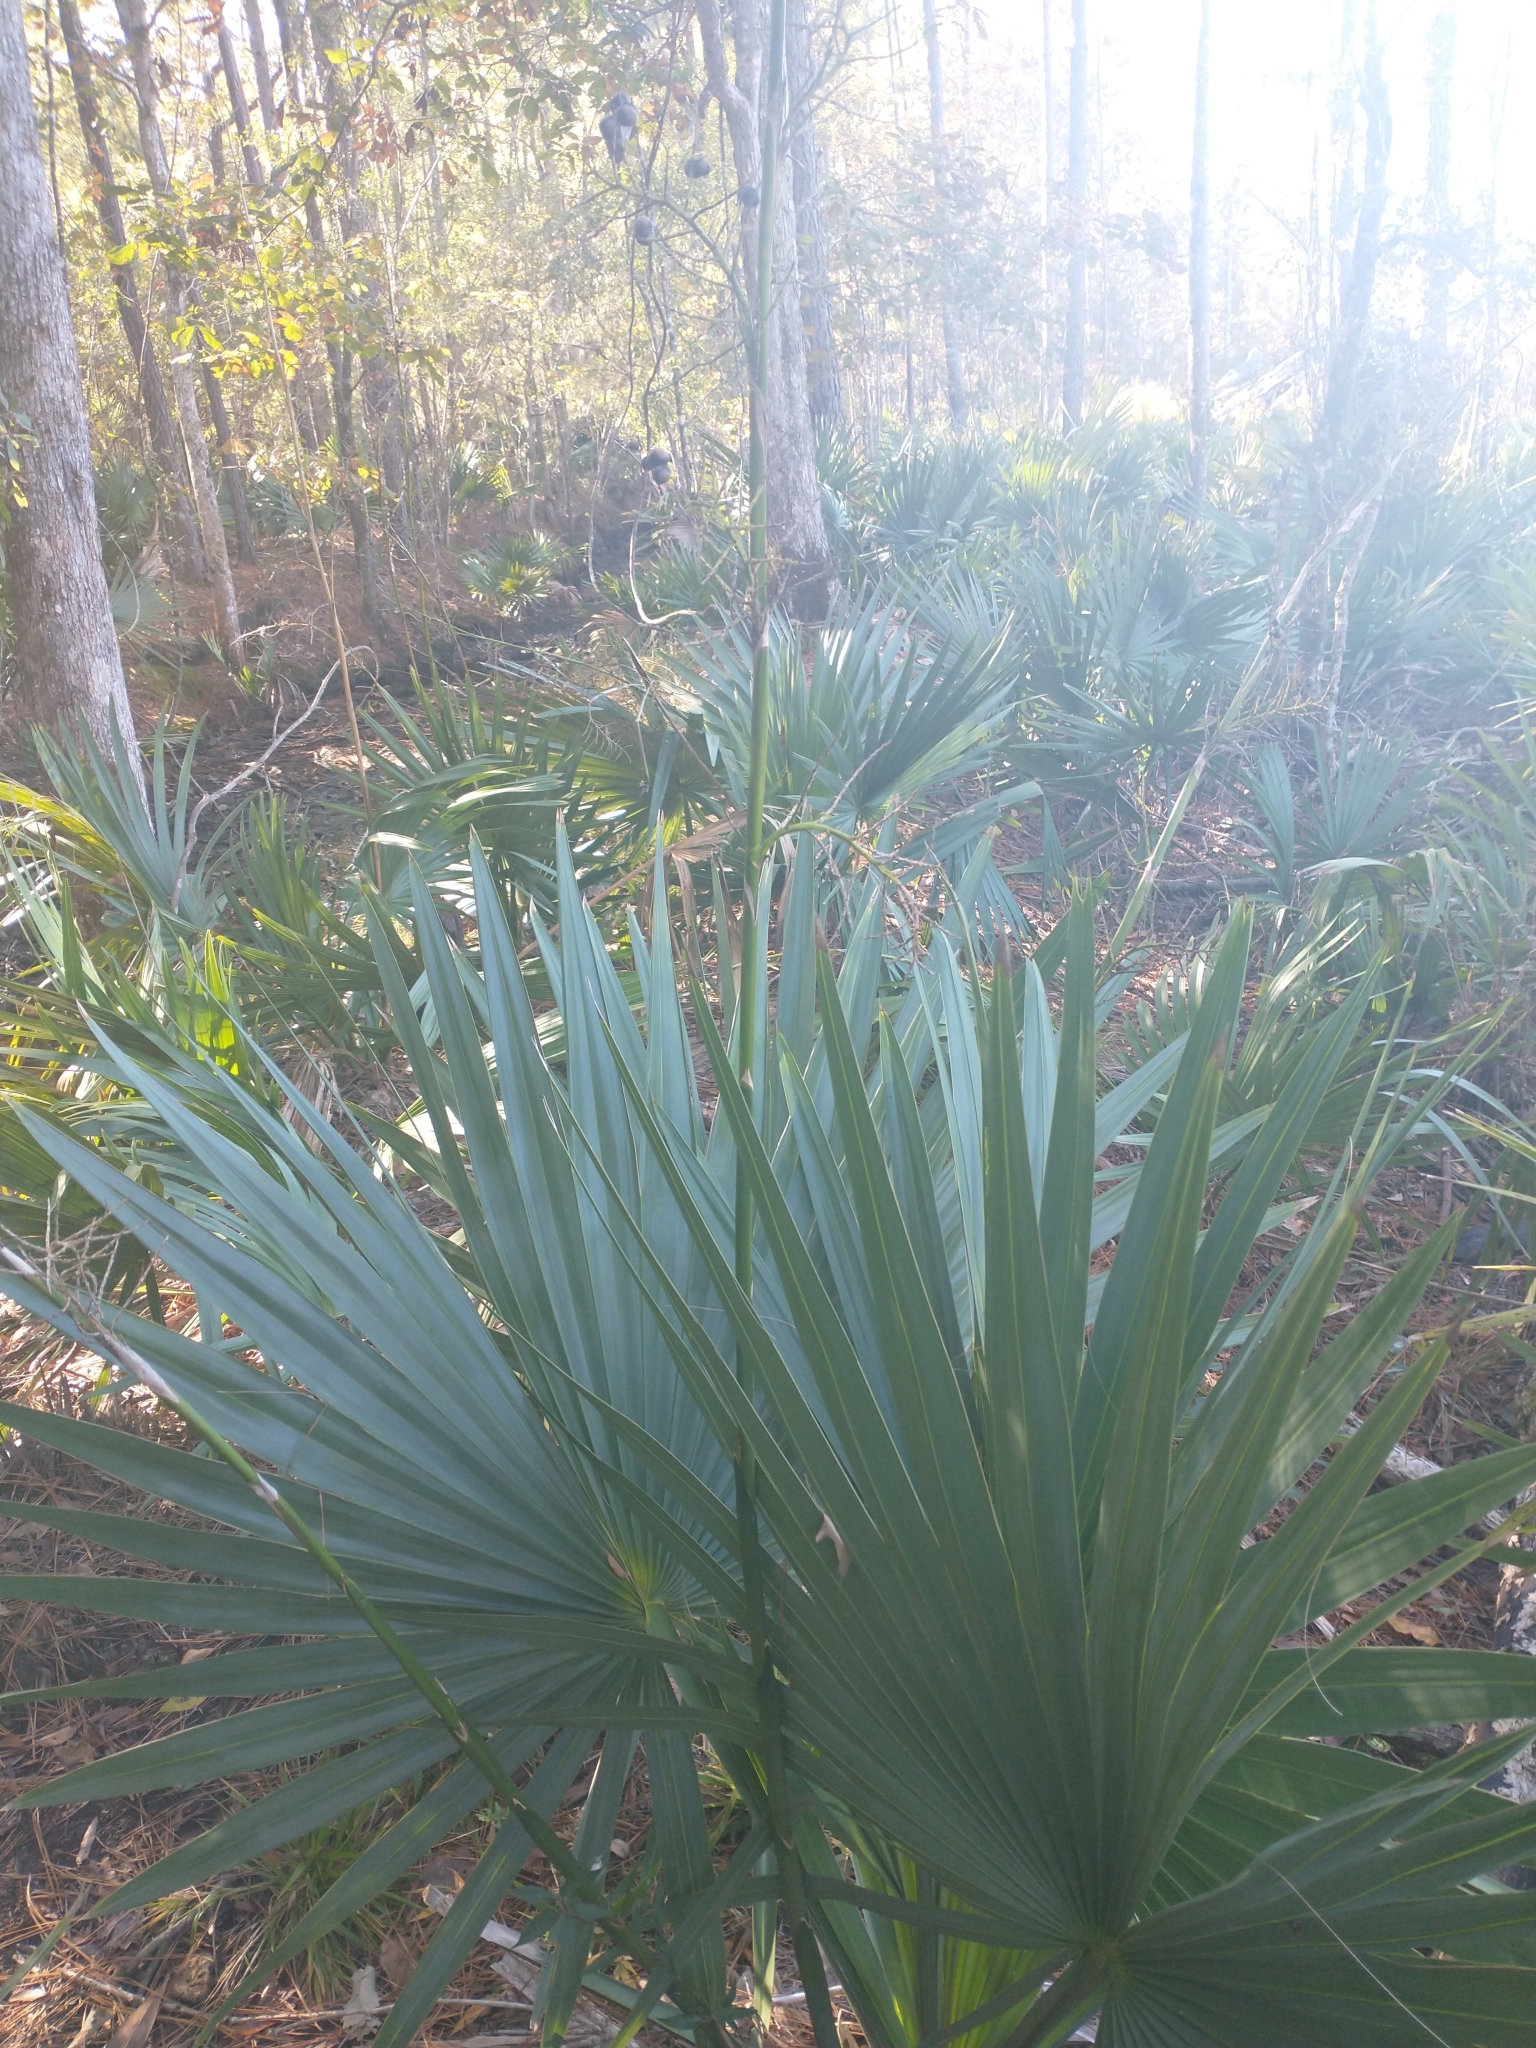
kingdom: Plantae
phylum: Tracheophyta
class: Liliopsida
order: Arecales
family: Arecaceae
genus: Sabal
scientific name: Sabal minor
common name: Dwarf palmetto
